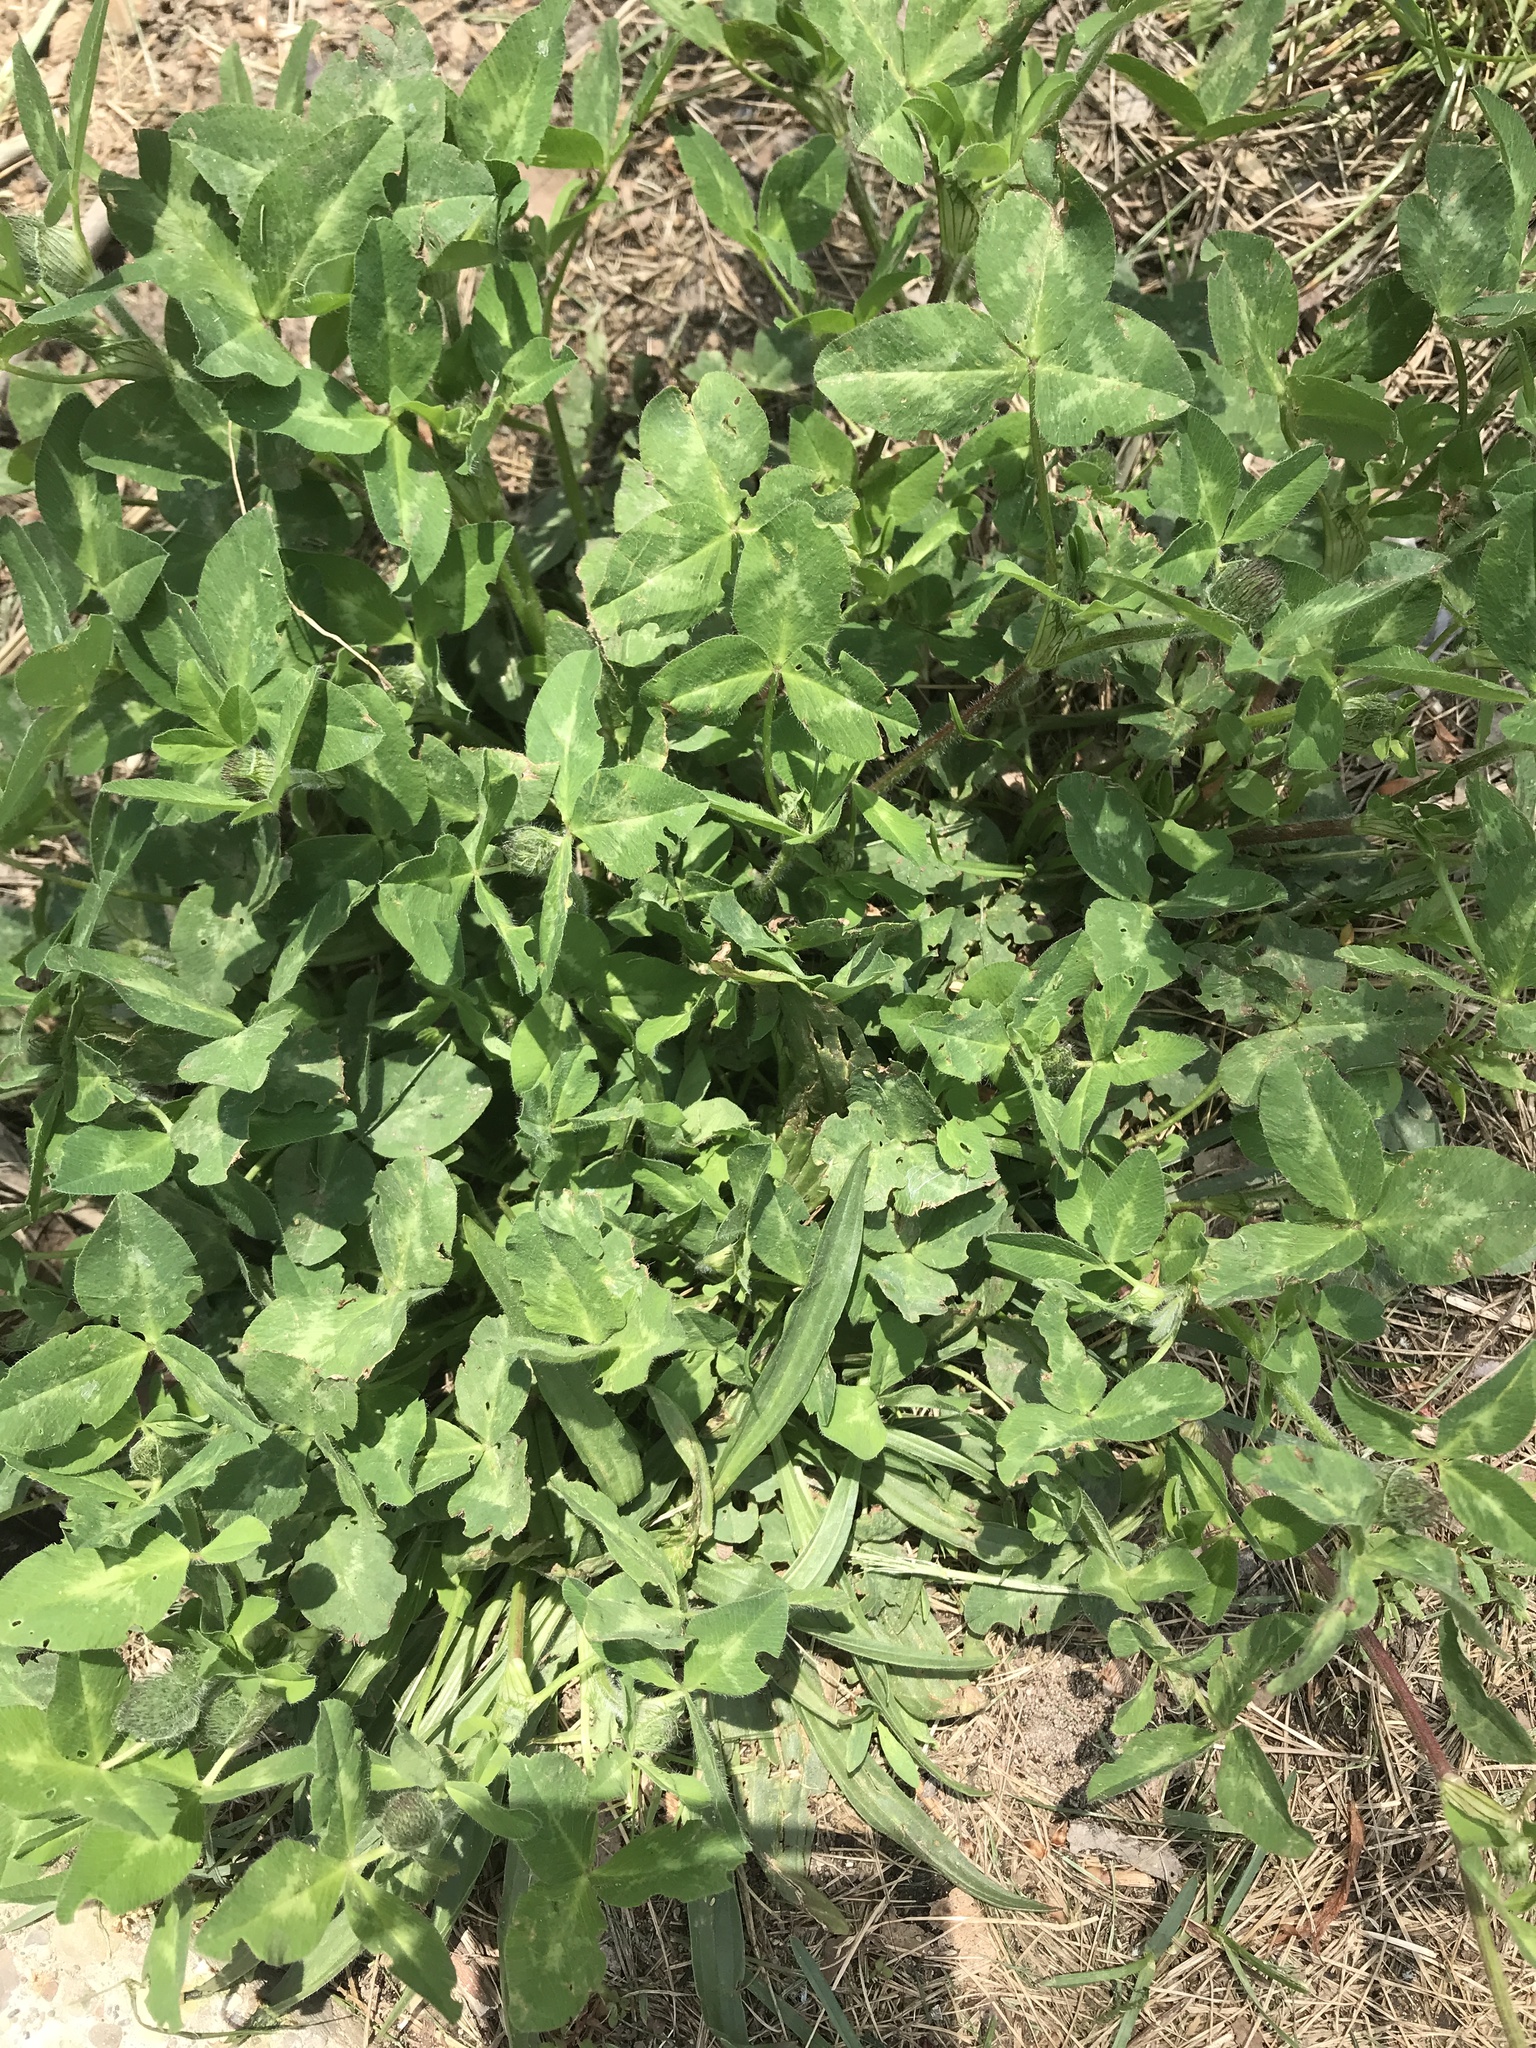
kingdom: Plantae
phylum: Tracheophyta
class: Magnoliopsida
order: Fabales
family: Fabaceae
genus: Trifolium
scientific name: Trifolium pratense
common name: Red clover
